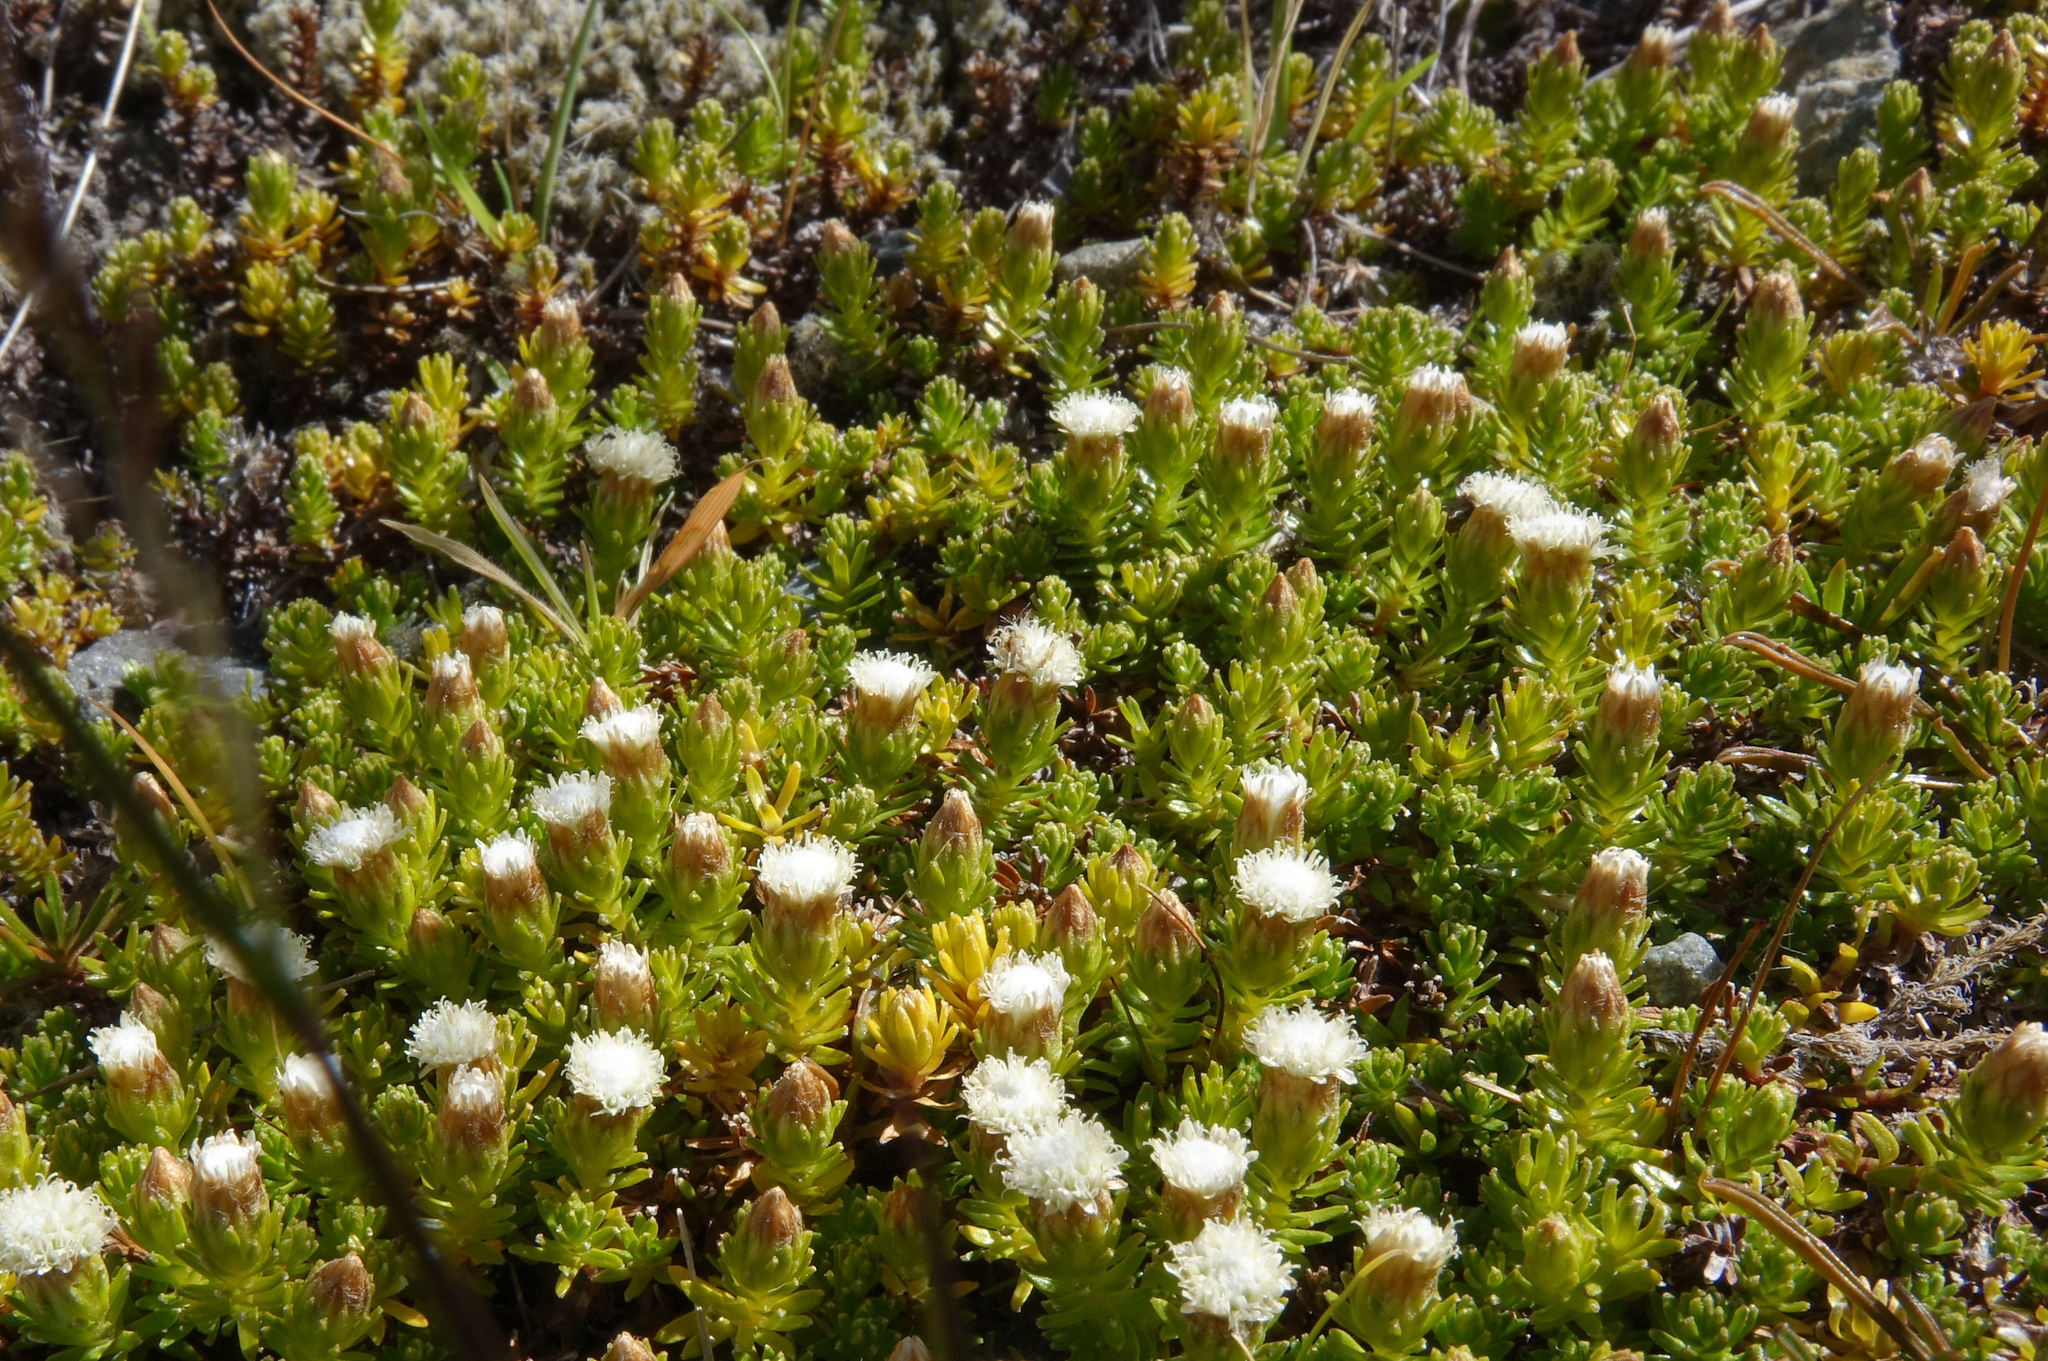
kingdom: Plantae
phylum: Tracheophyta
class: Magnoliopsida
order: Asterales
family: Asteraceae
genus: Raoulia
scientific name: Raoulia glabra
